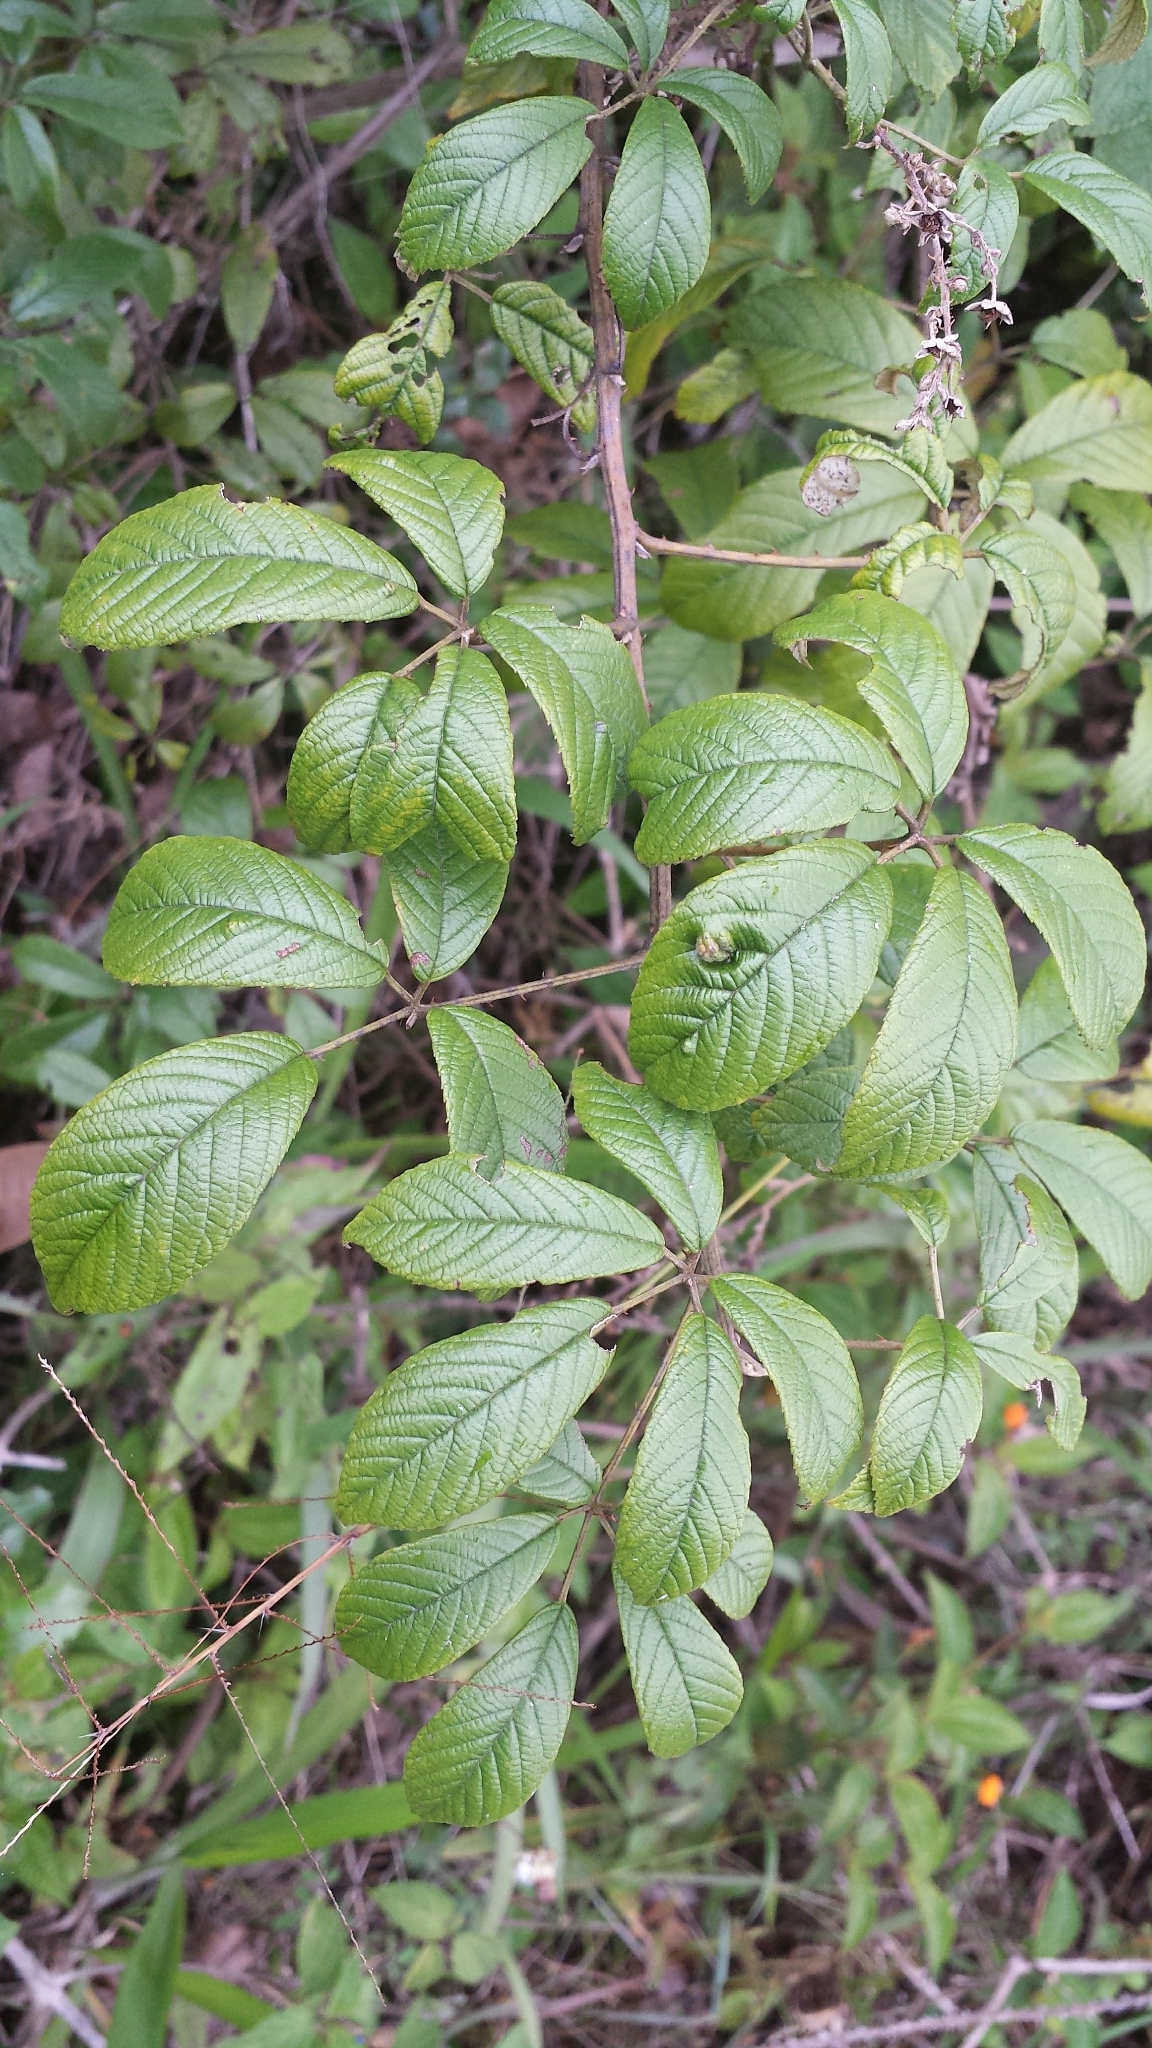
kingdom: Plantae
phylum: Tracheophyta
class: Magnoliopsida
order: Rosales
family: Rosaceae
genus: Rubus
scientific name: Rubus malagassus
